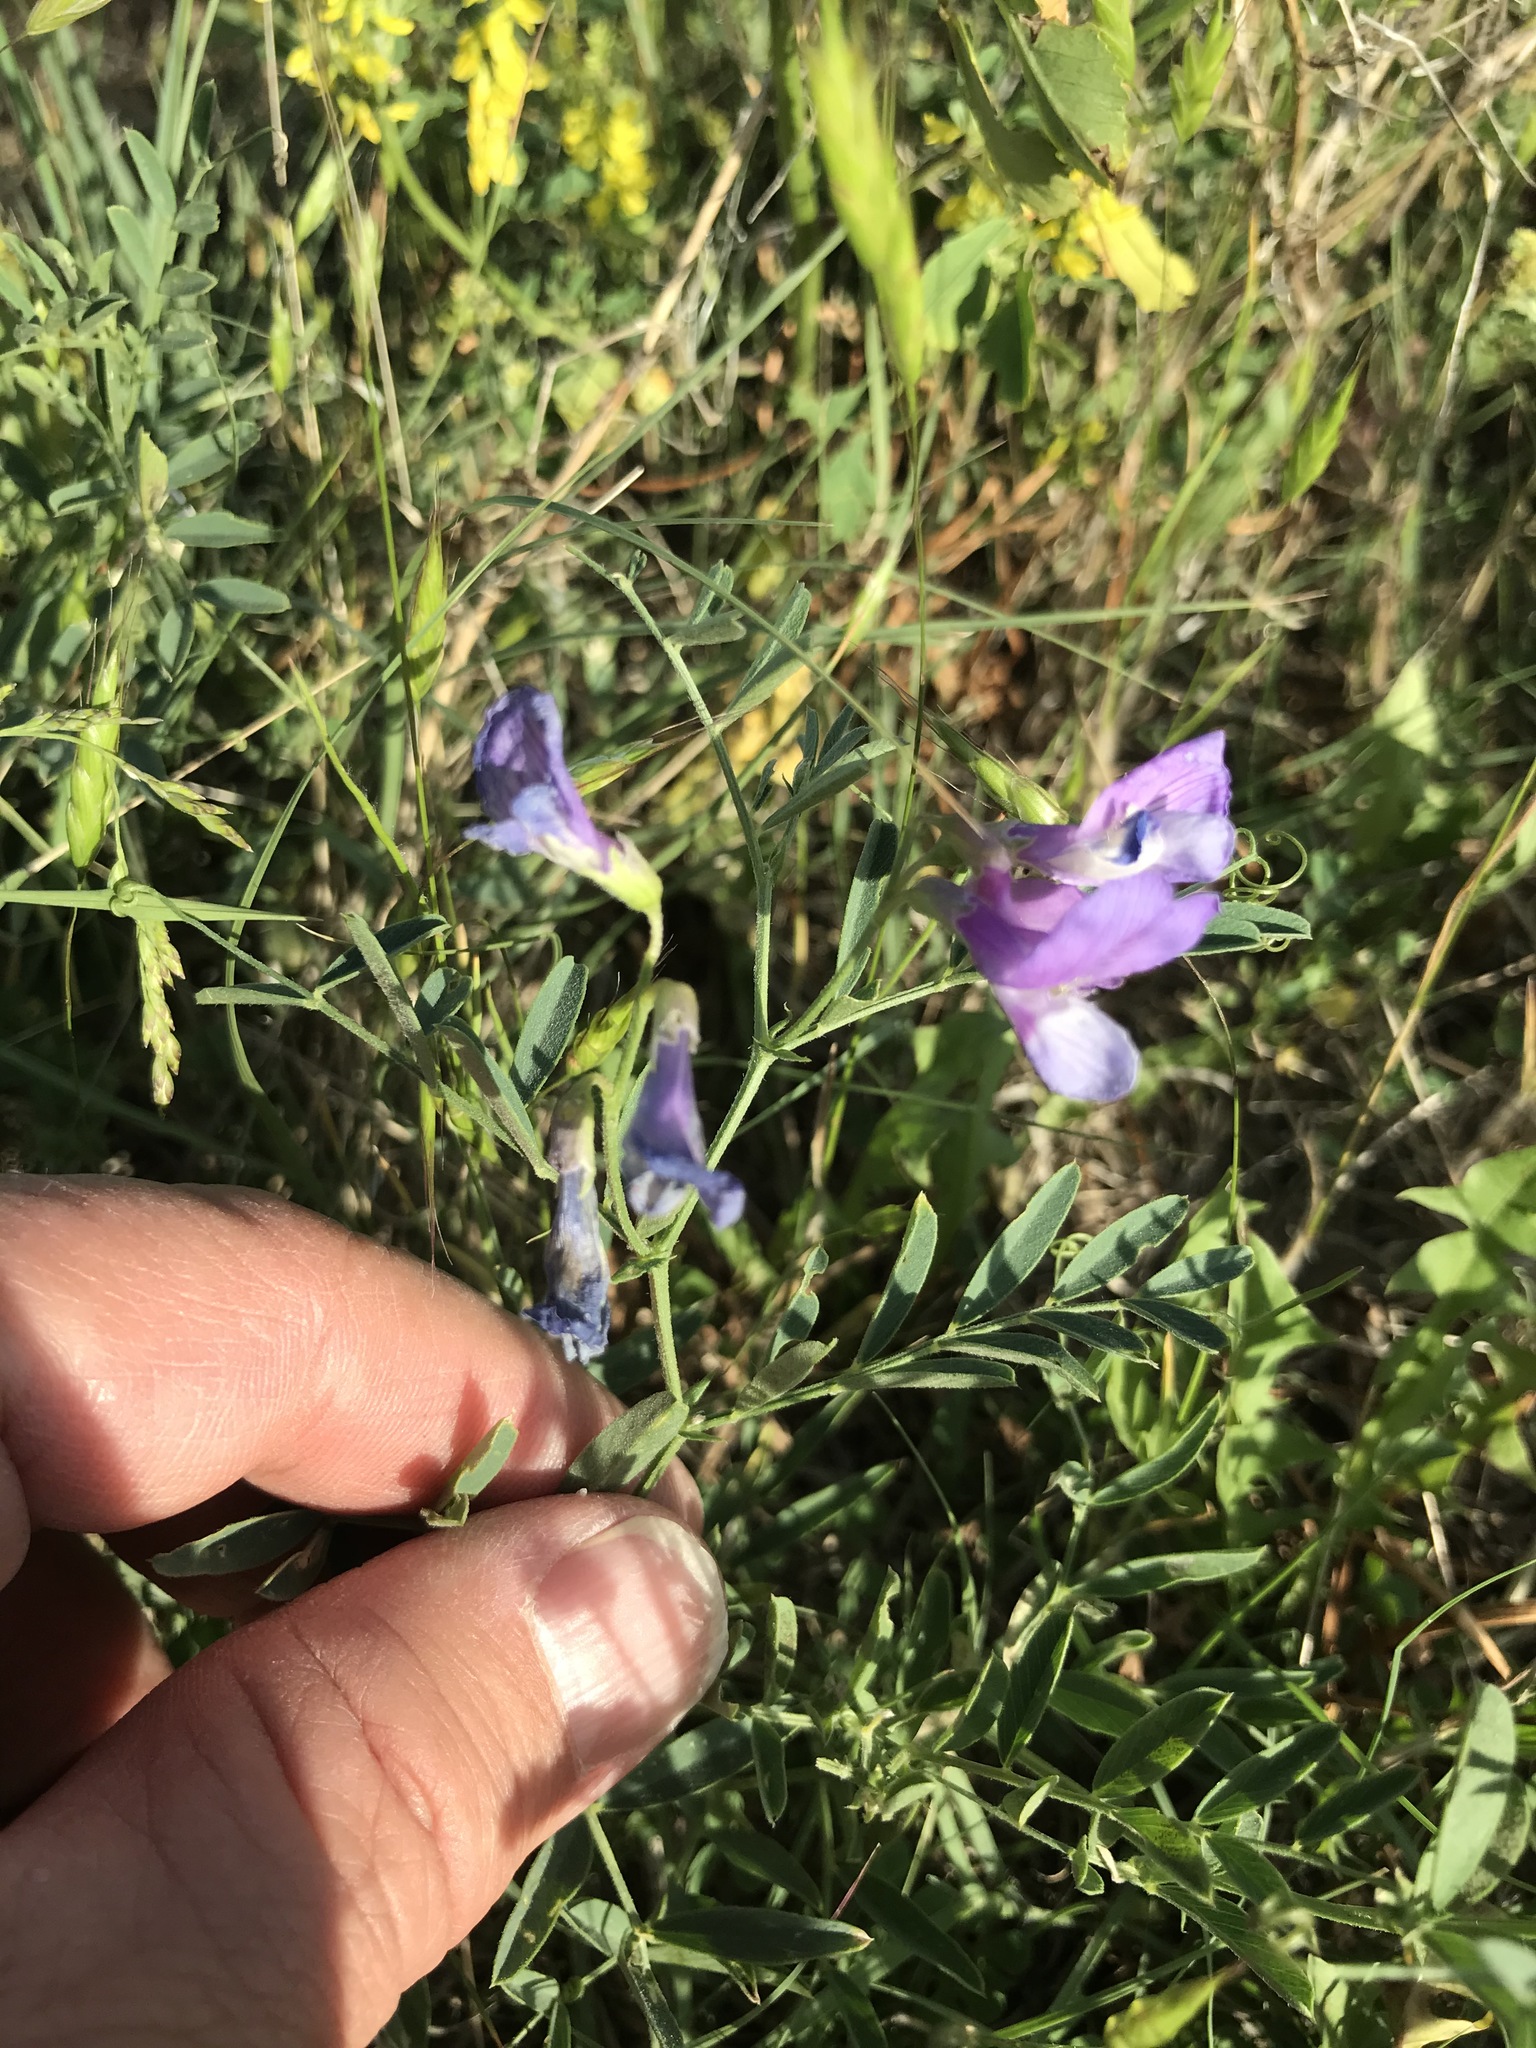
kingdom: Plantae
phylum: Tracheophyta
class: Magnoliopsida
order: Fabales
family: Fabaceae
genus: Vicia
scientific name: Vicia americana
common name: American vetch
